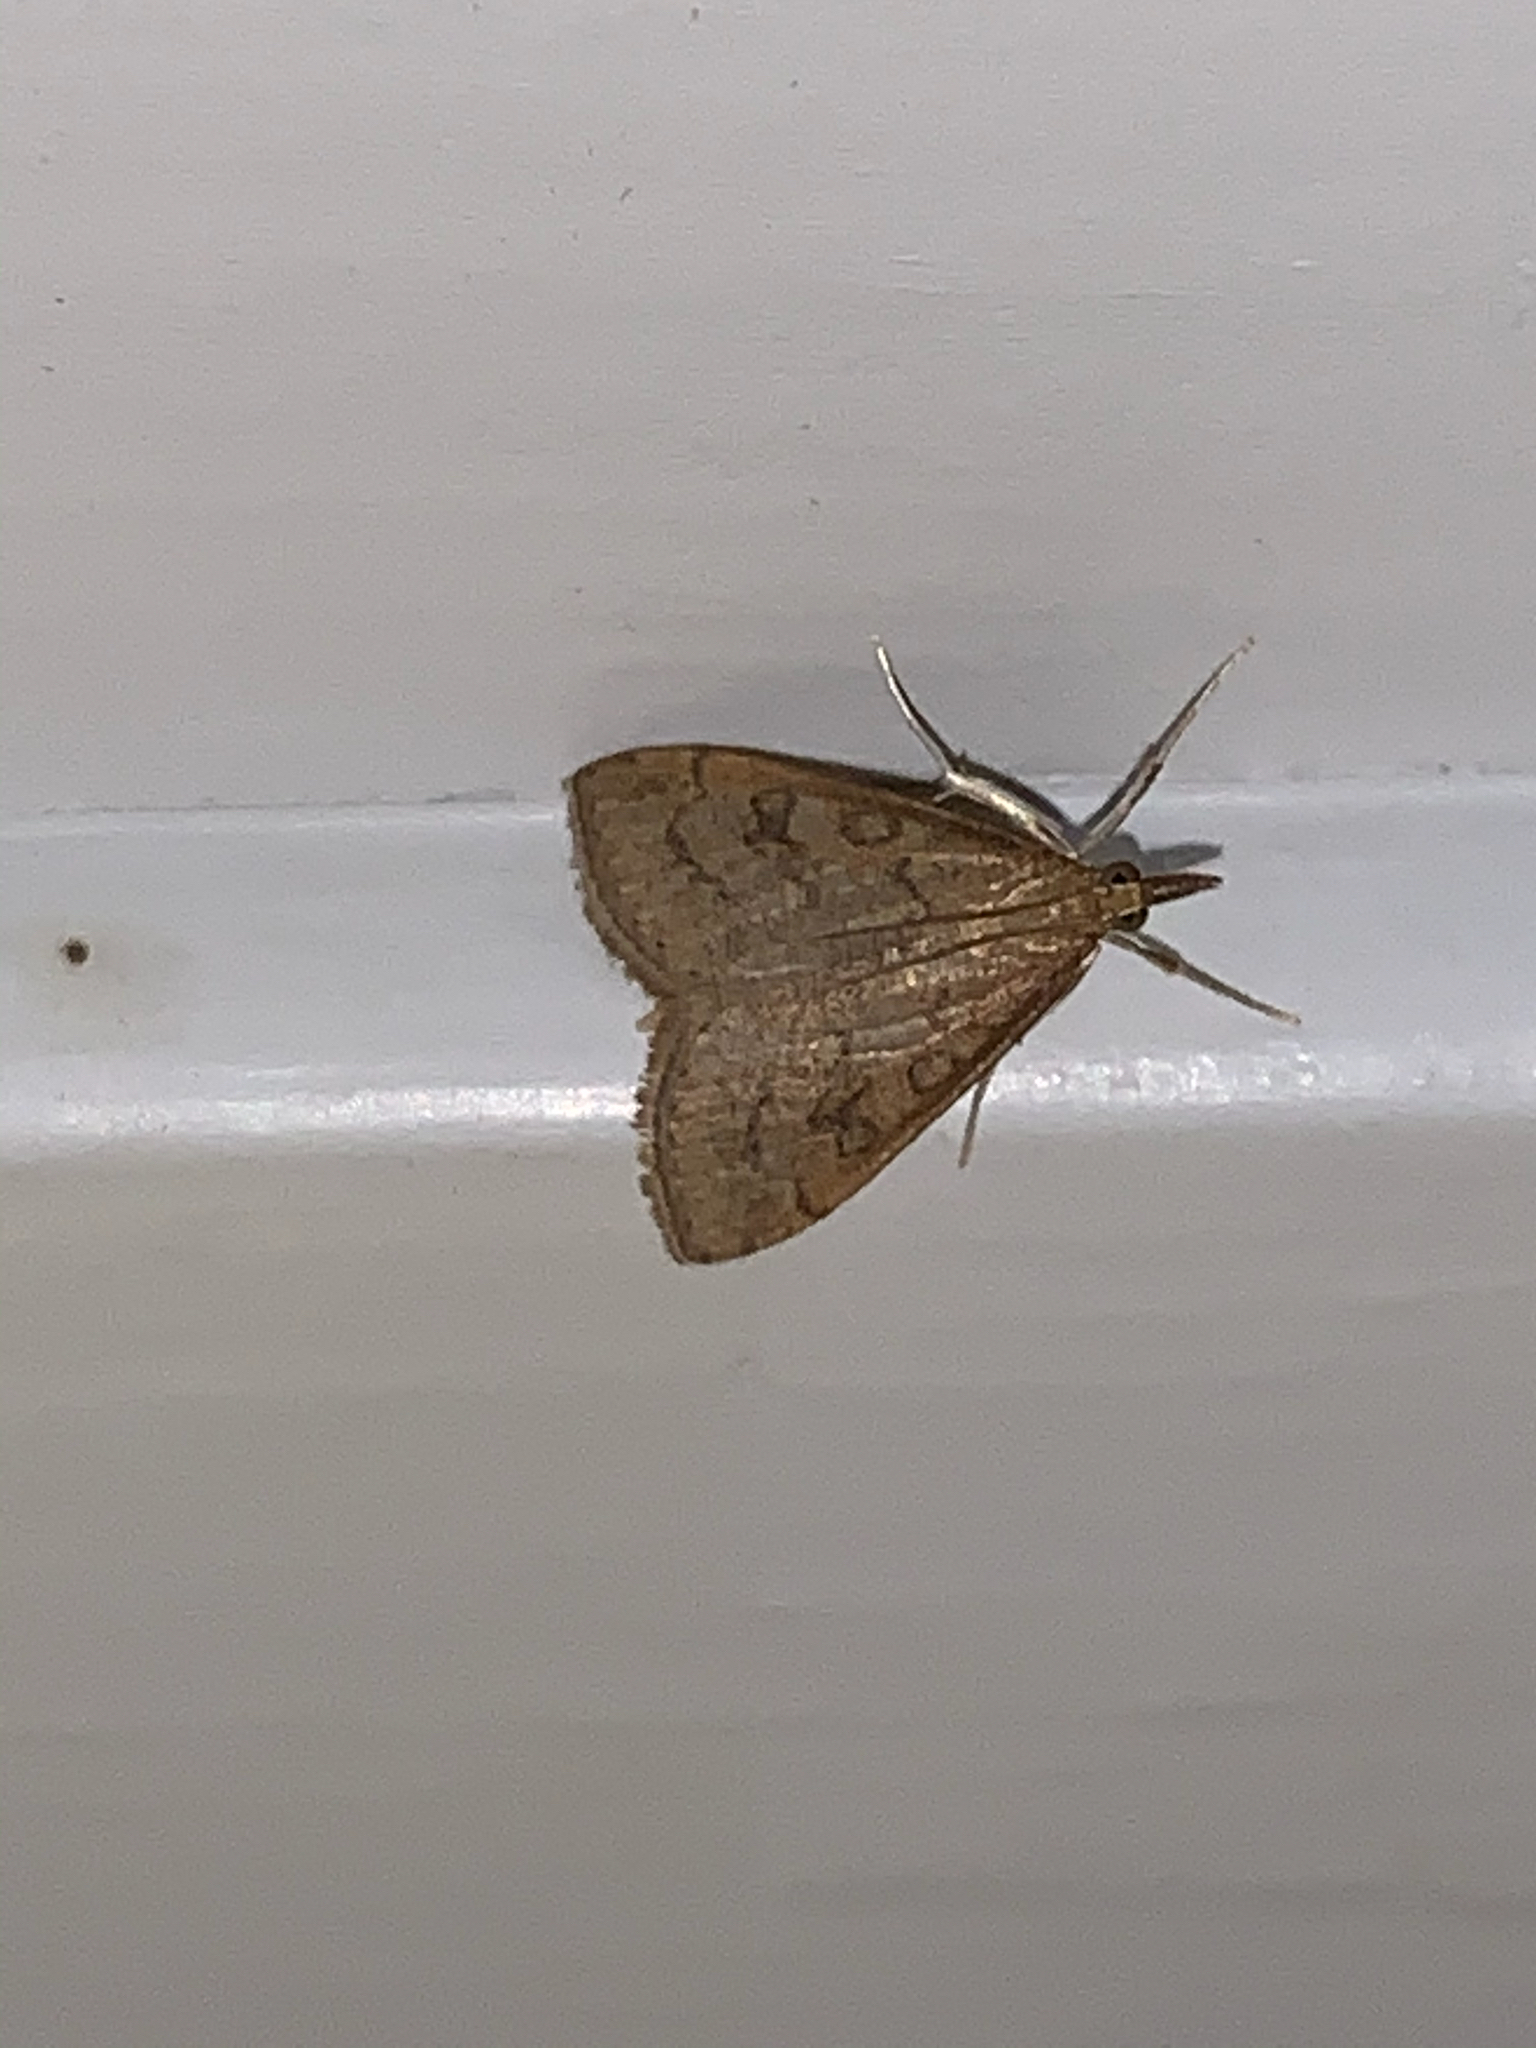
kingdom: Animalia
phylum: Arthropoda
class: Insecta
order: Lepidoptera
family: Crambidae
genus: Udea
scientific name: Udea rubigalis
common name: Celery leaftier moth
